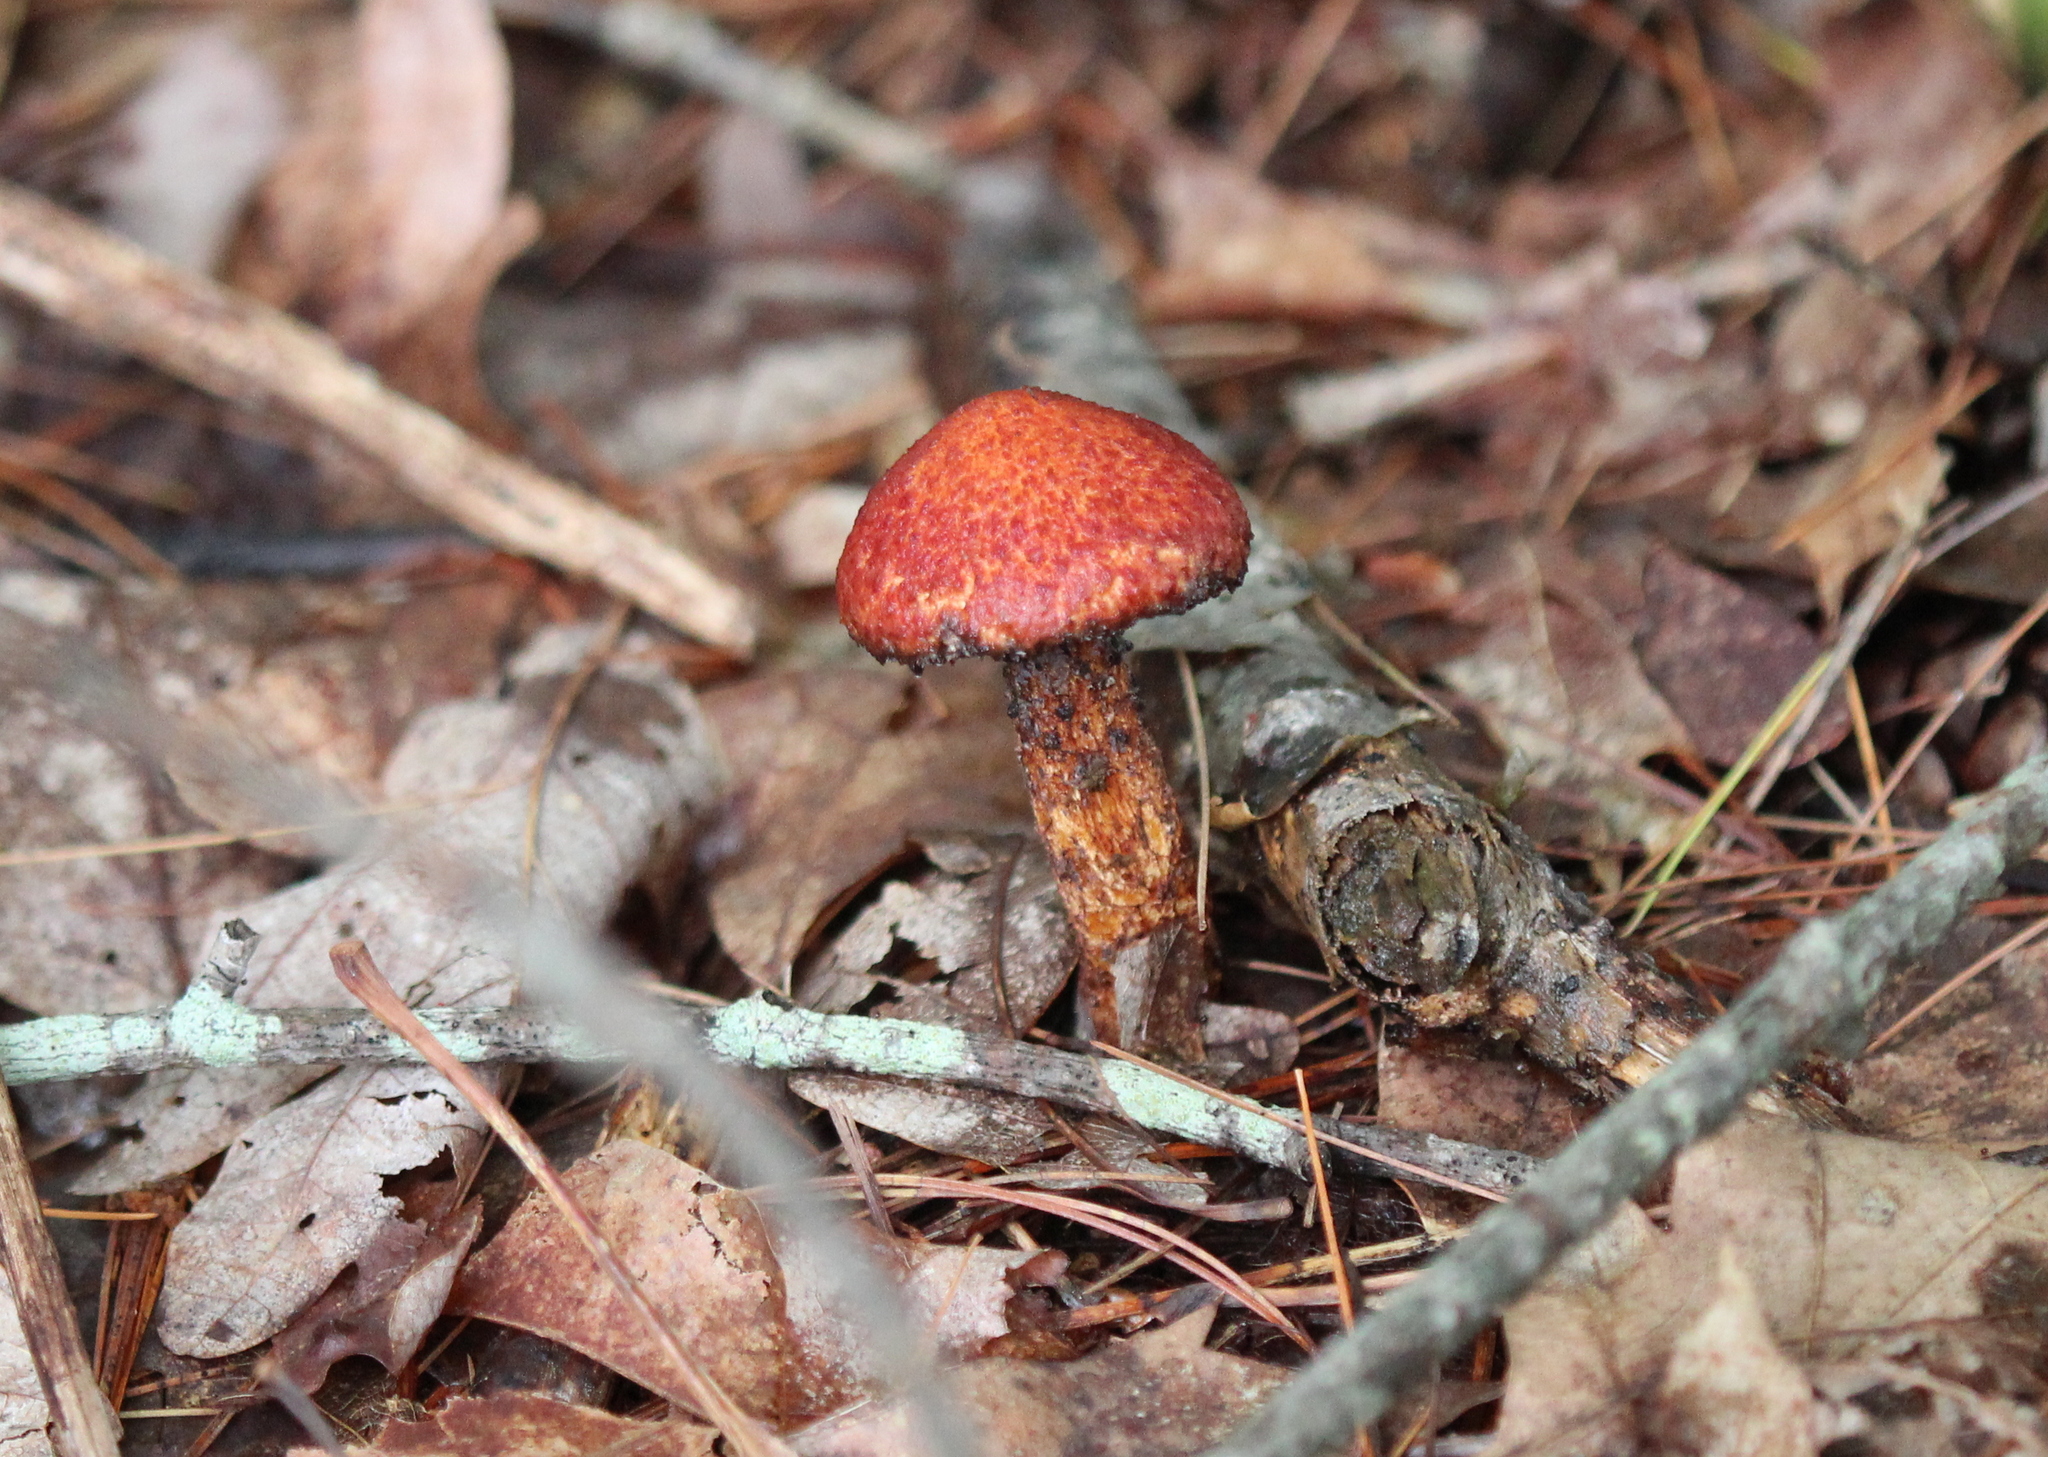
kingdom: Fungi
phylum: Basidiomycota
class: Agaricomycetes
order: Boletales
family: Suillaceae
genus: Suillus
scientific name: Suillus spraguei
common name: Painted suillus
